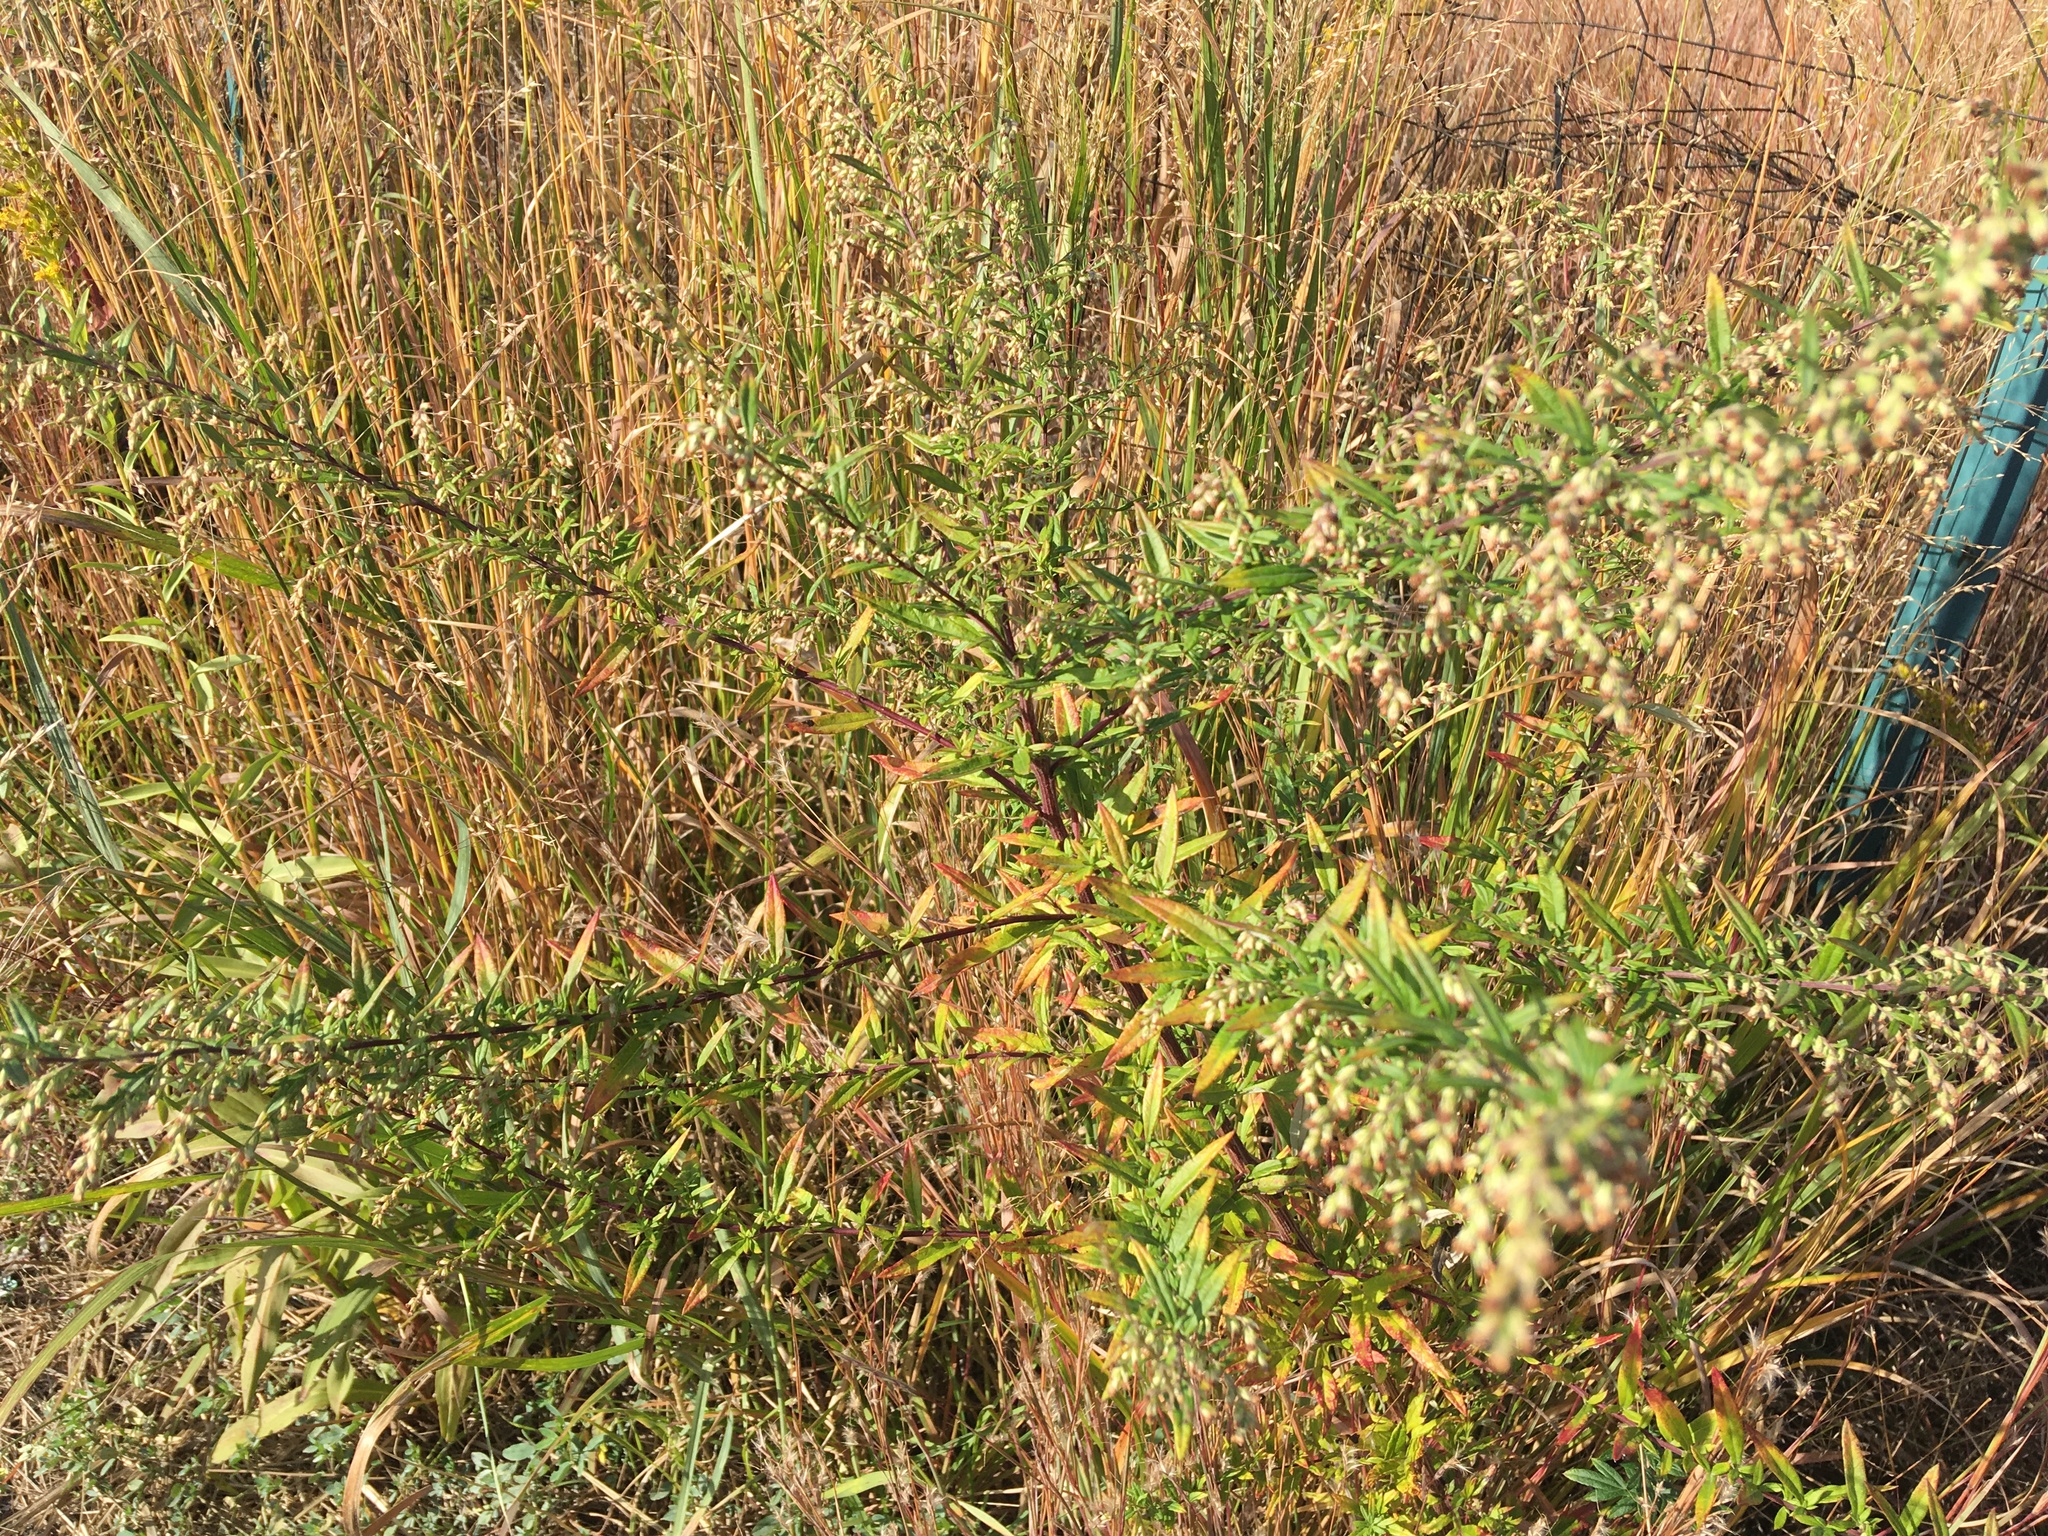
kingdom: Plantae
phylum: Tracheophyta
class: Magnoliopsida
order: Asterales
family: Asteraceae
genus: Artemisia
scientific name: Artemisia vulgaris
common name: Mugwort
